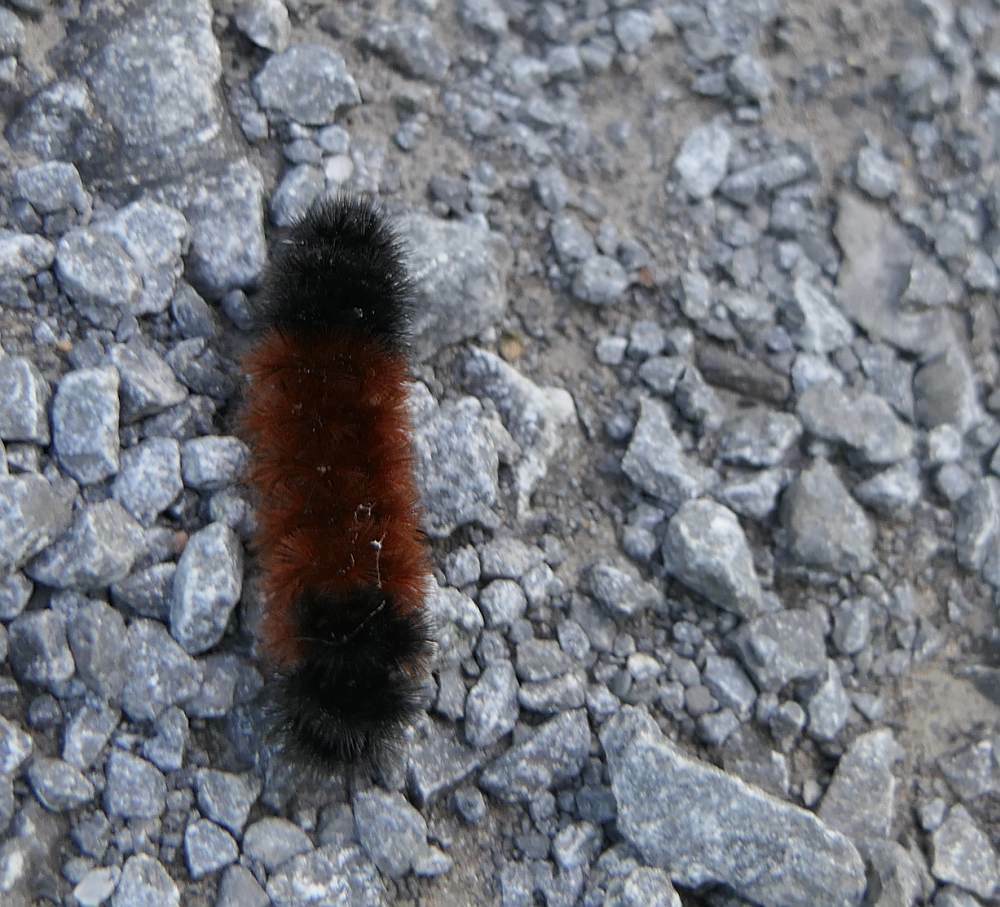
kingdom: Animalia
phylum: Arthropoda
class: Insecta
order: Lepidoptera
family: Erebidae
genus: Pyrrharctia
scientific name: Pyrrharctia isabella
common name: Isabella tiger moth
